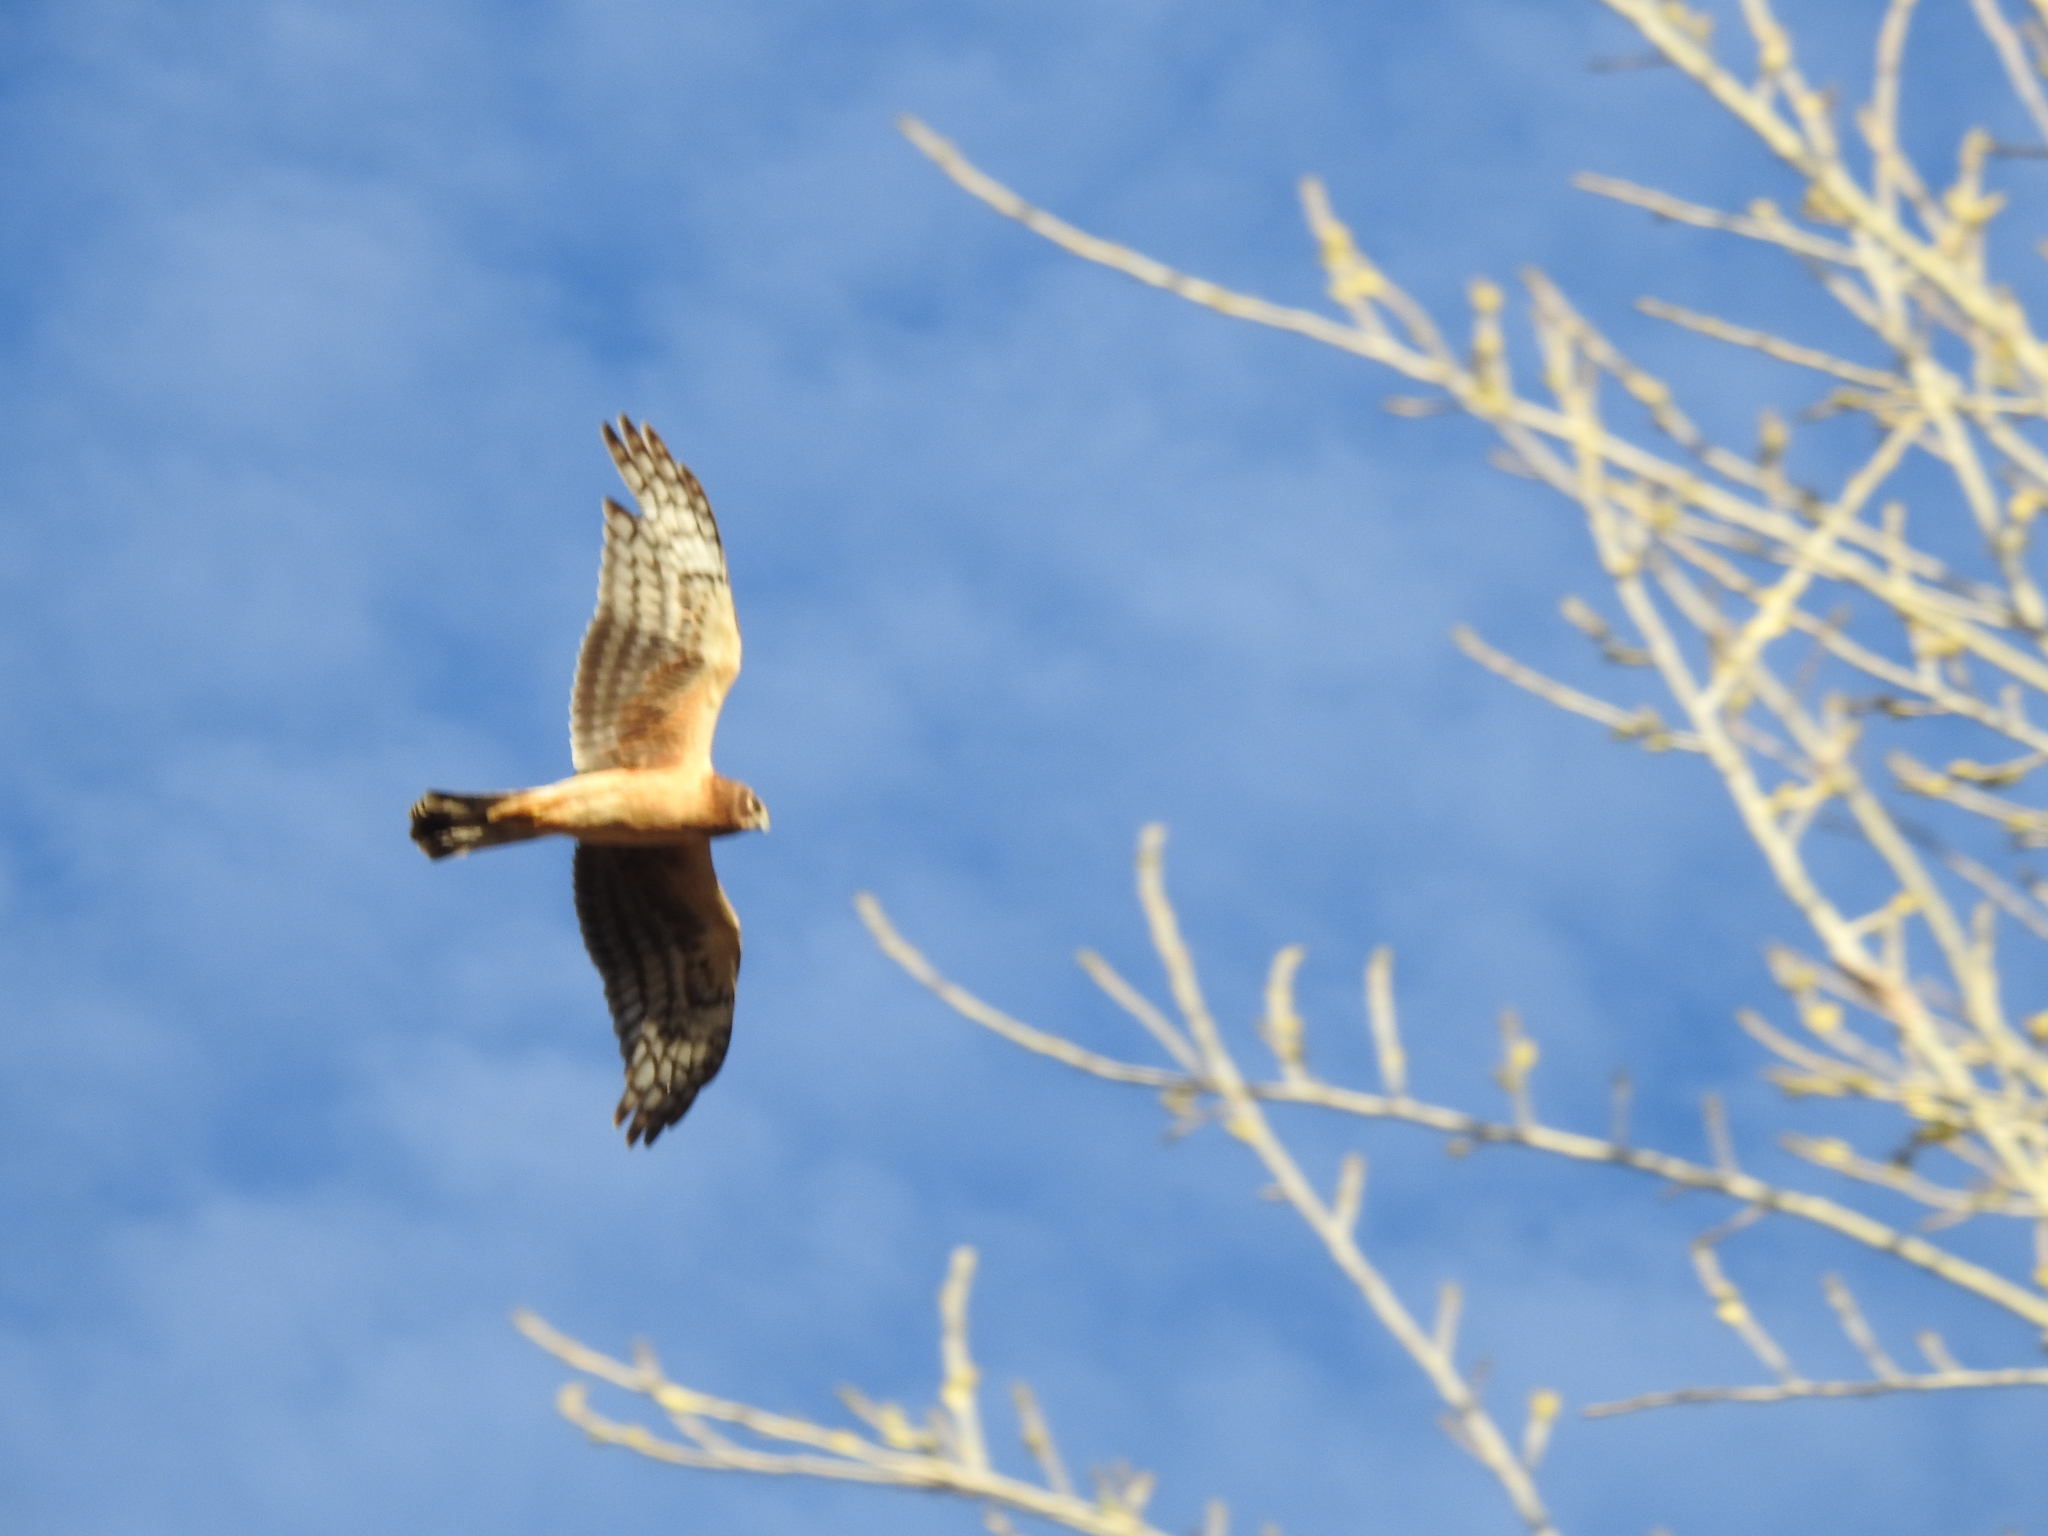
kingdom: Animalia
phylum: Chordata
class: Aves
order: Accipitriformes
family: Accipitridae
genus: Circus
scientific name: Circus cyaneus
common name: Hen harrier
